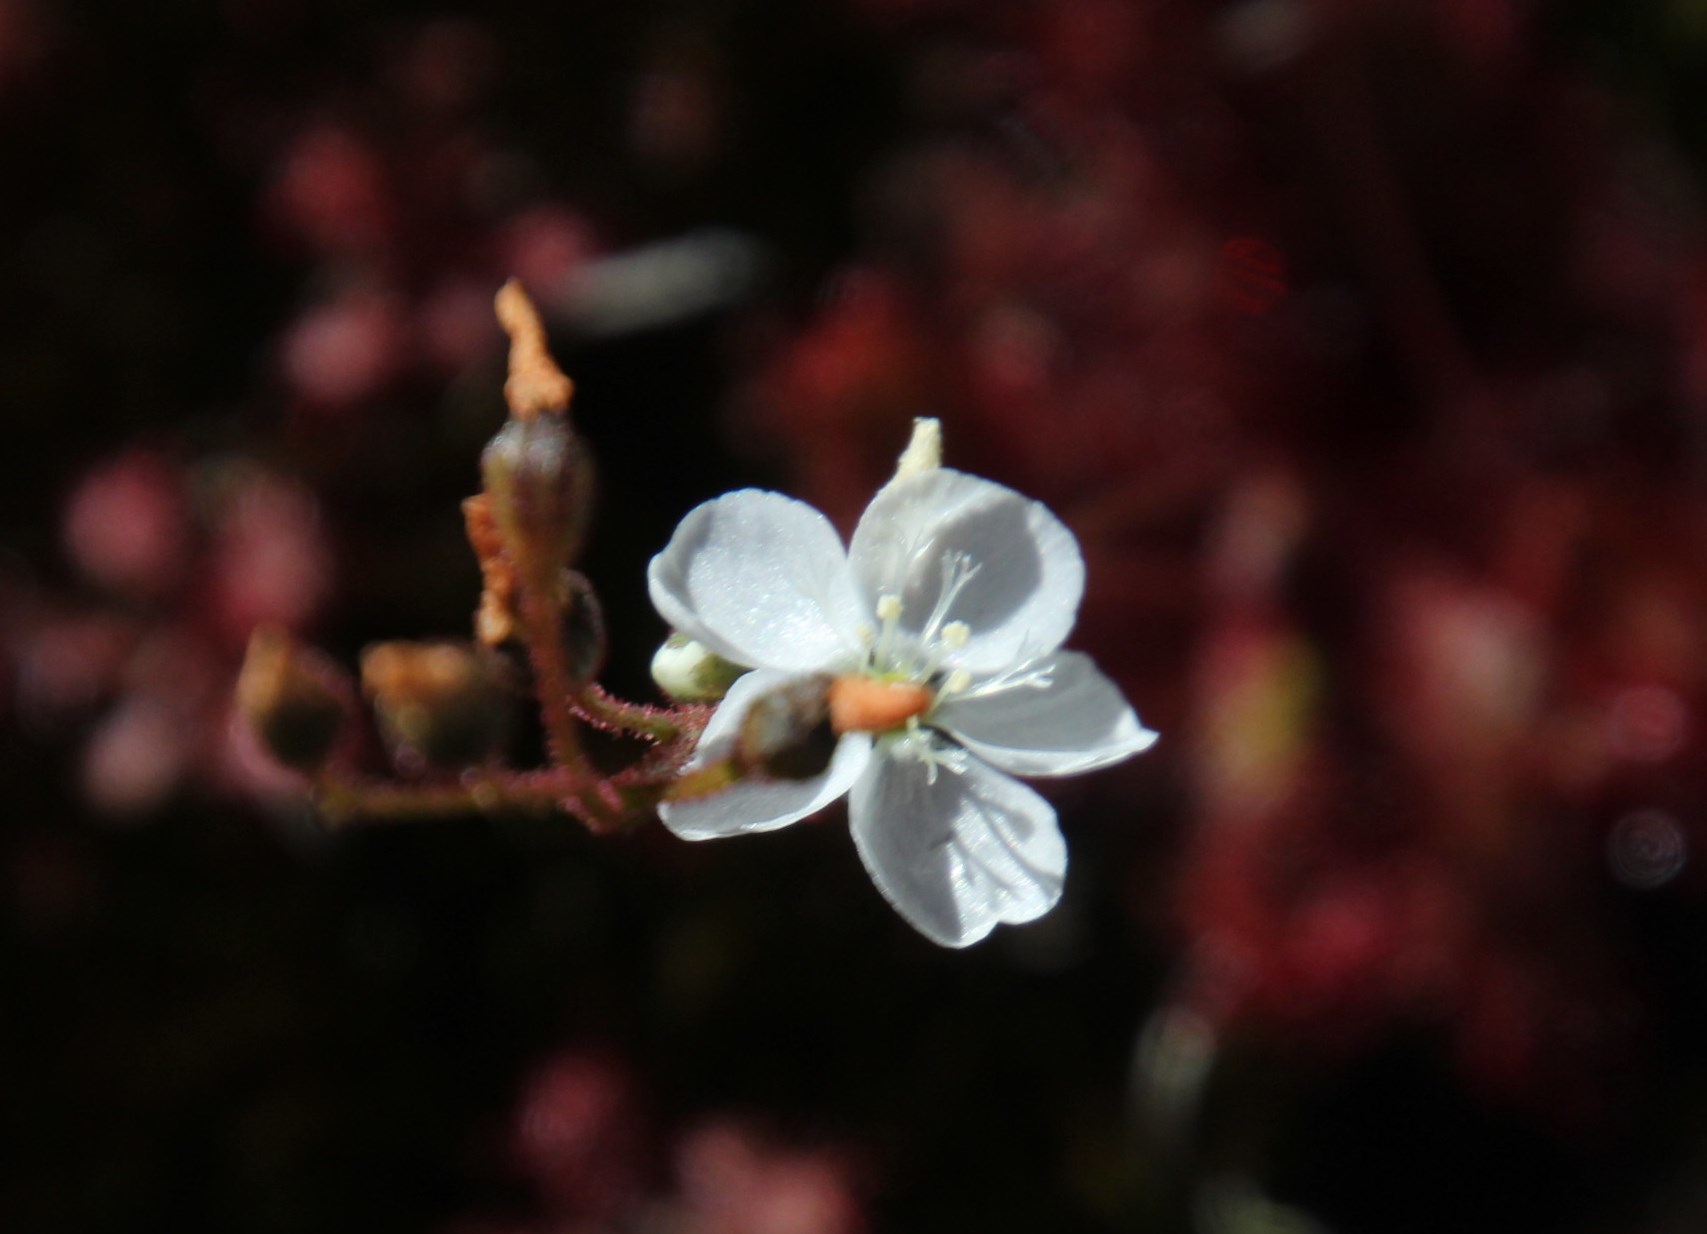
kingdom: Plantae
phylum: Tracheophyta
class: Magnoliopsida
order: Caryophyllales
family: Droseraceae
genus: Drosera
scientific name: Drosera trinervia
